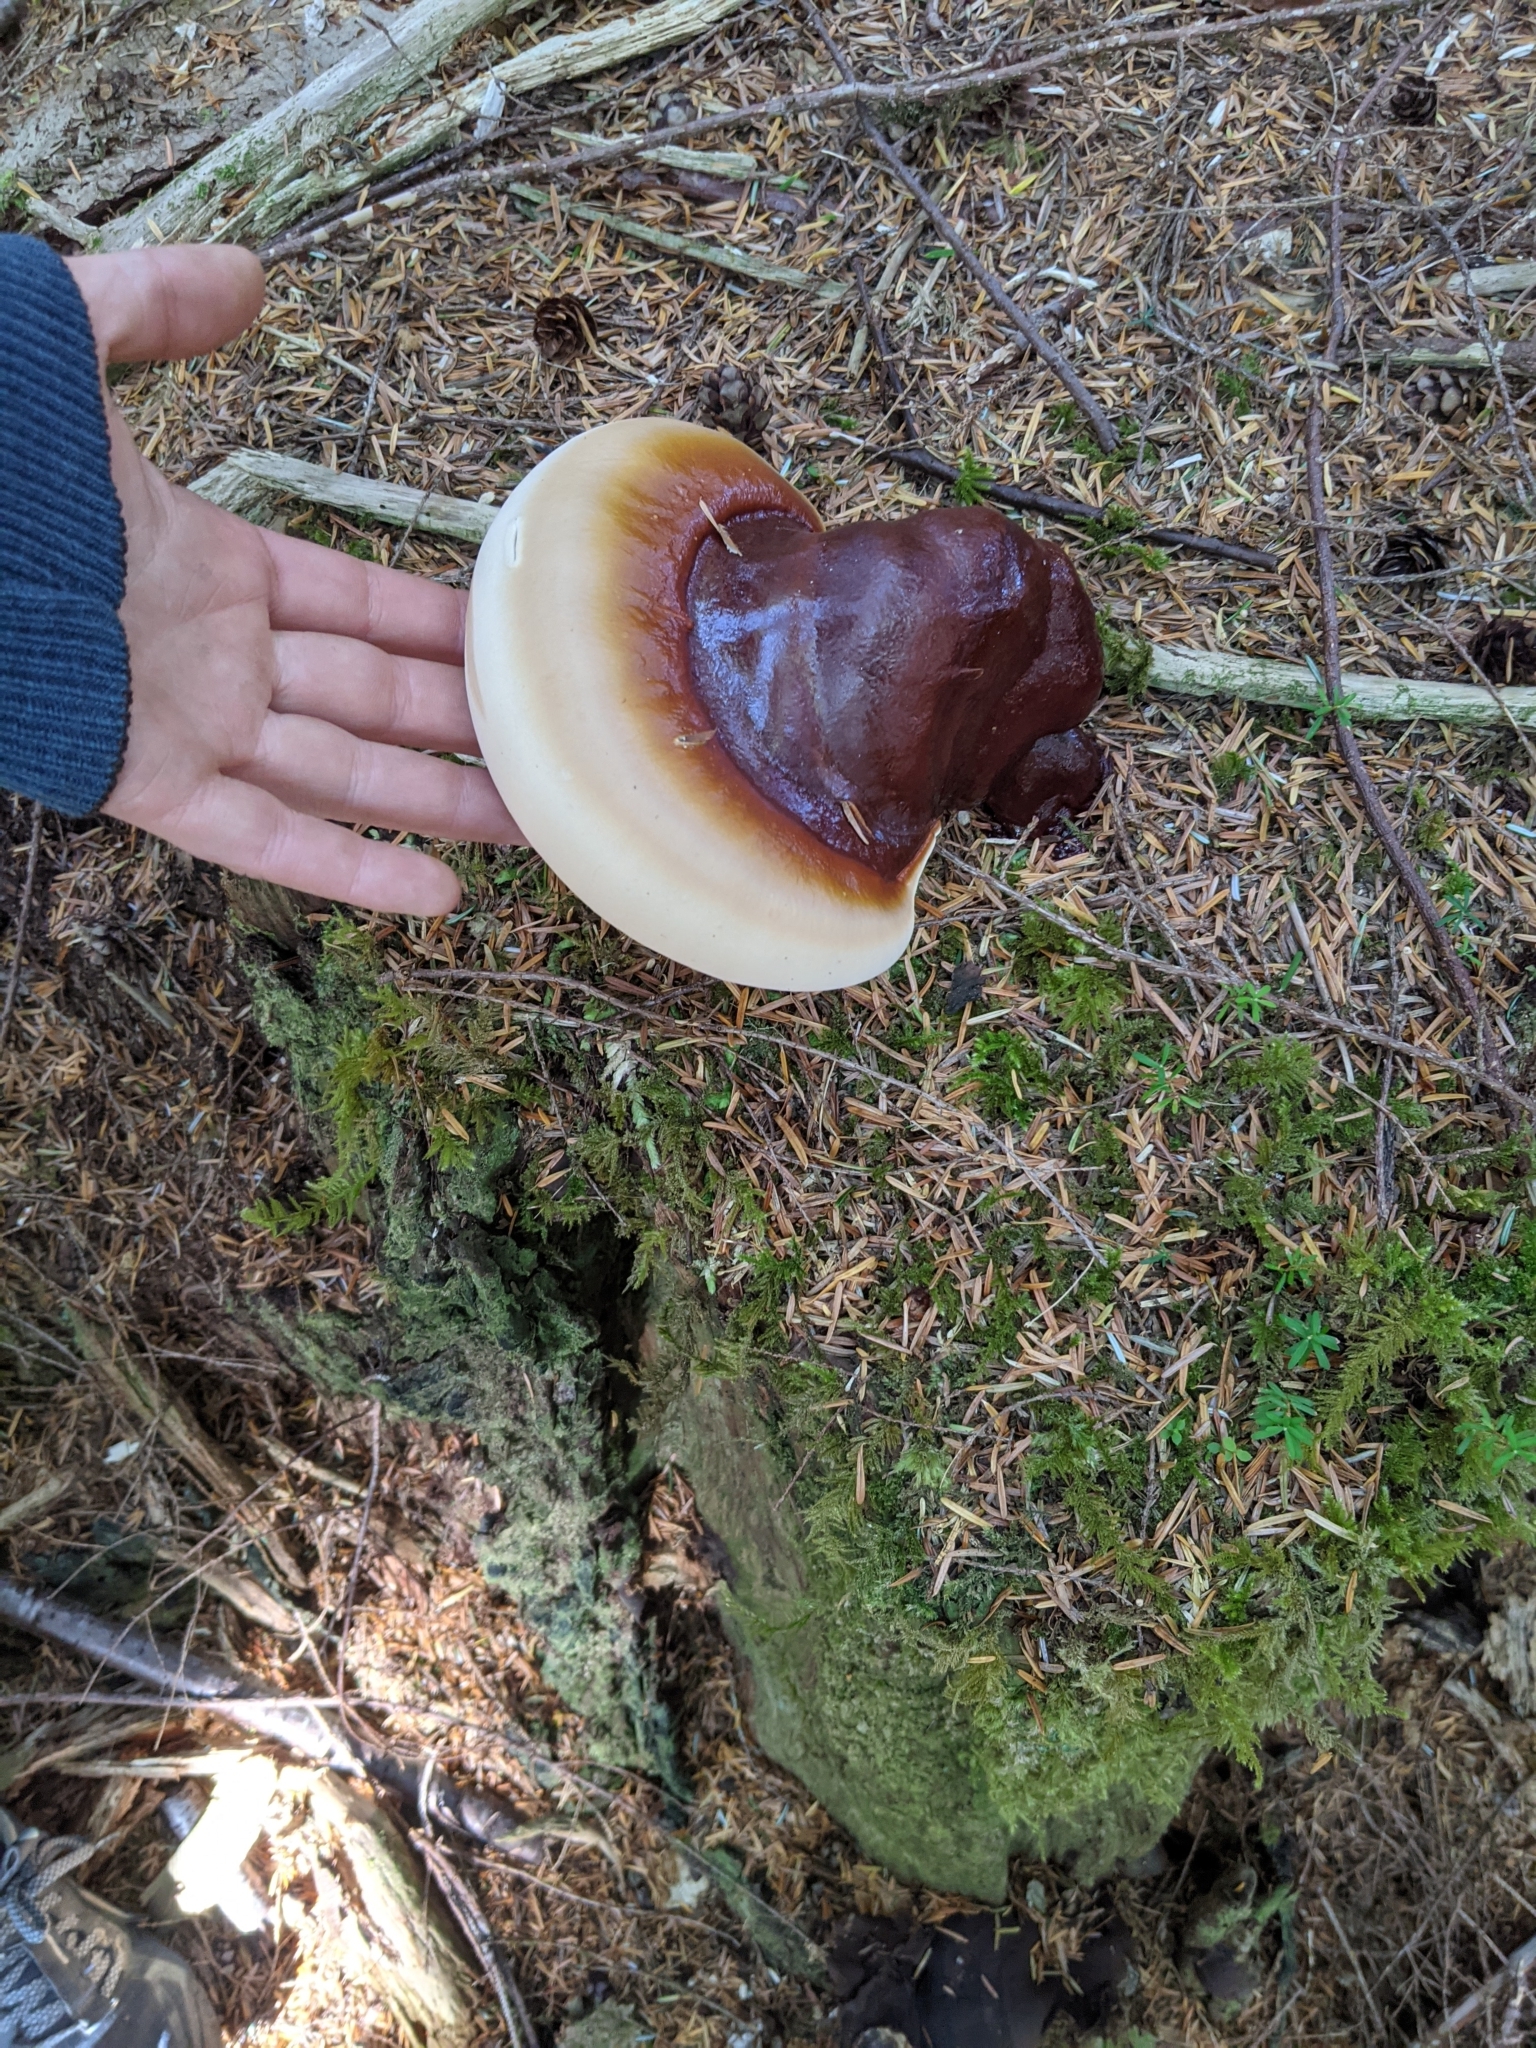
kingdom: Fungi
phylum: Basidiomycota
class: Agaricomycetes
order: Polyporales
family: Polyporaceae
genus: Ganoderma
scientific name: Ganoderma oregonense
